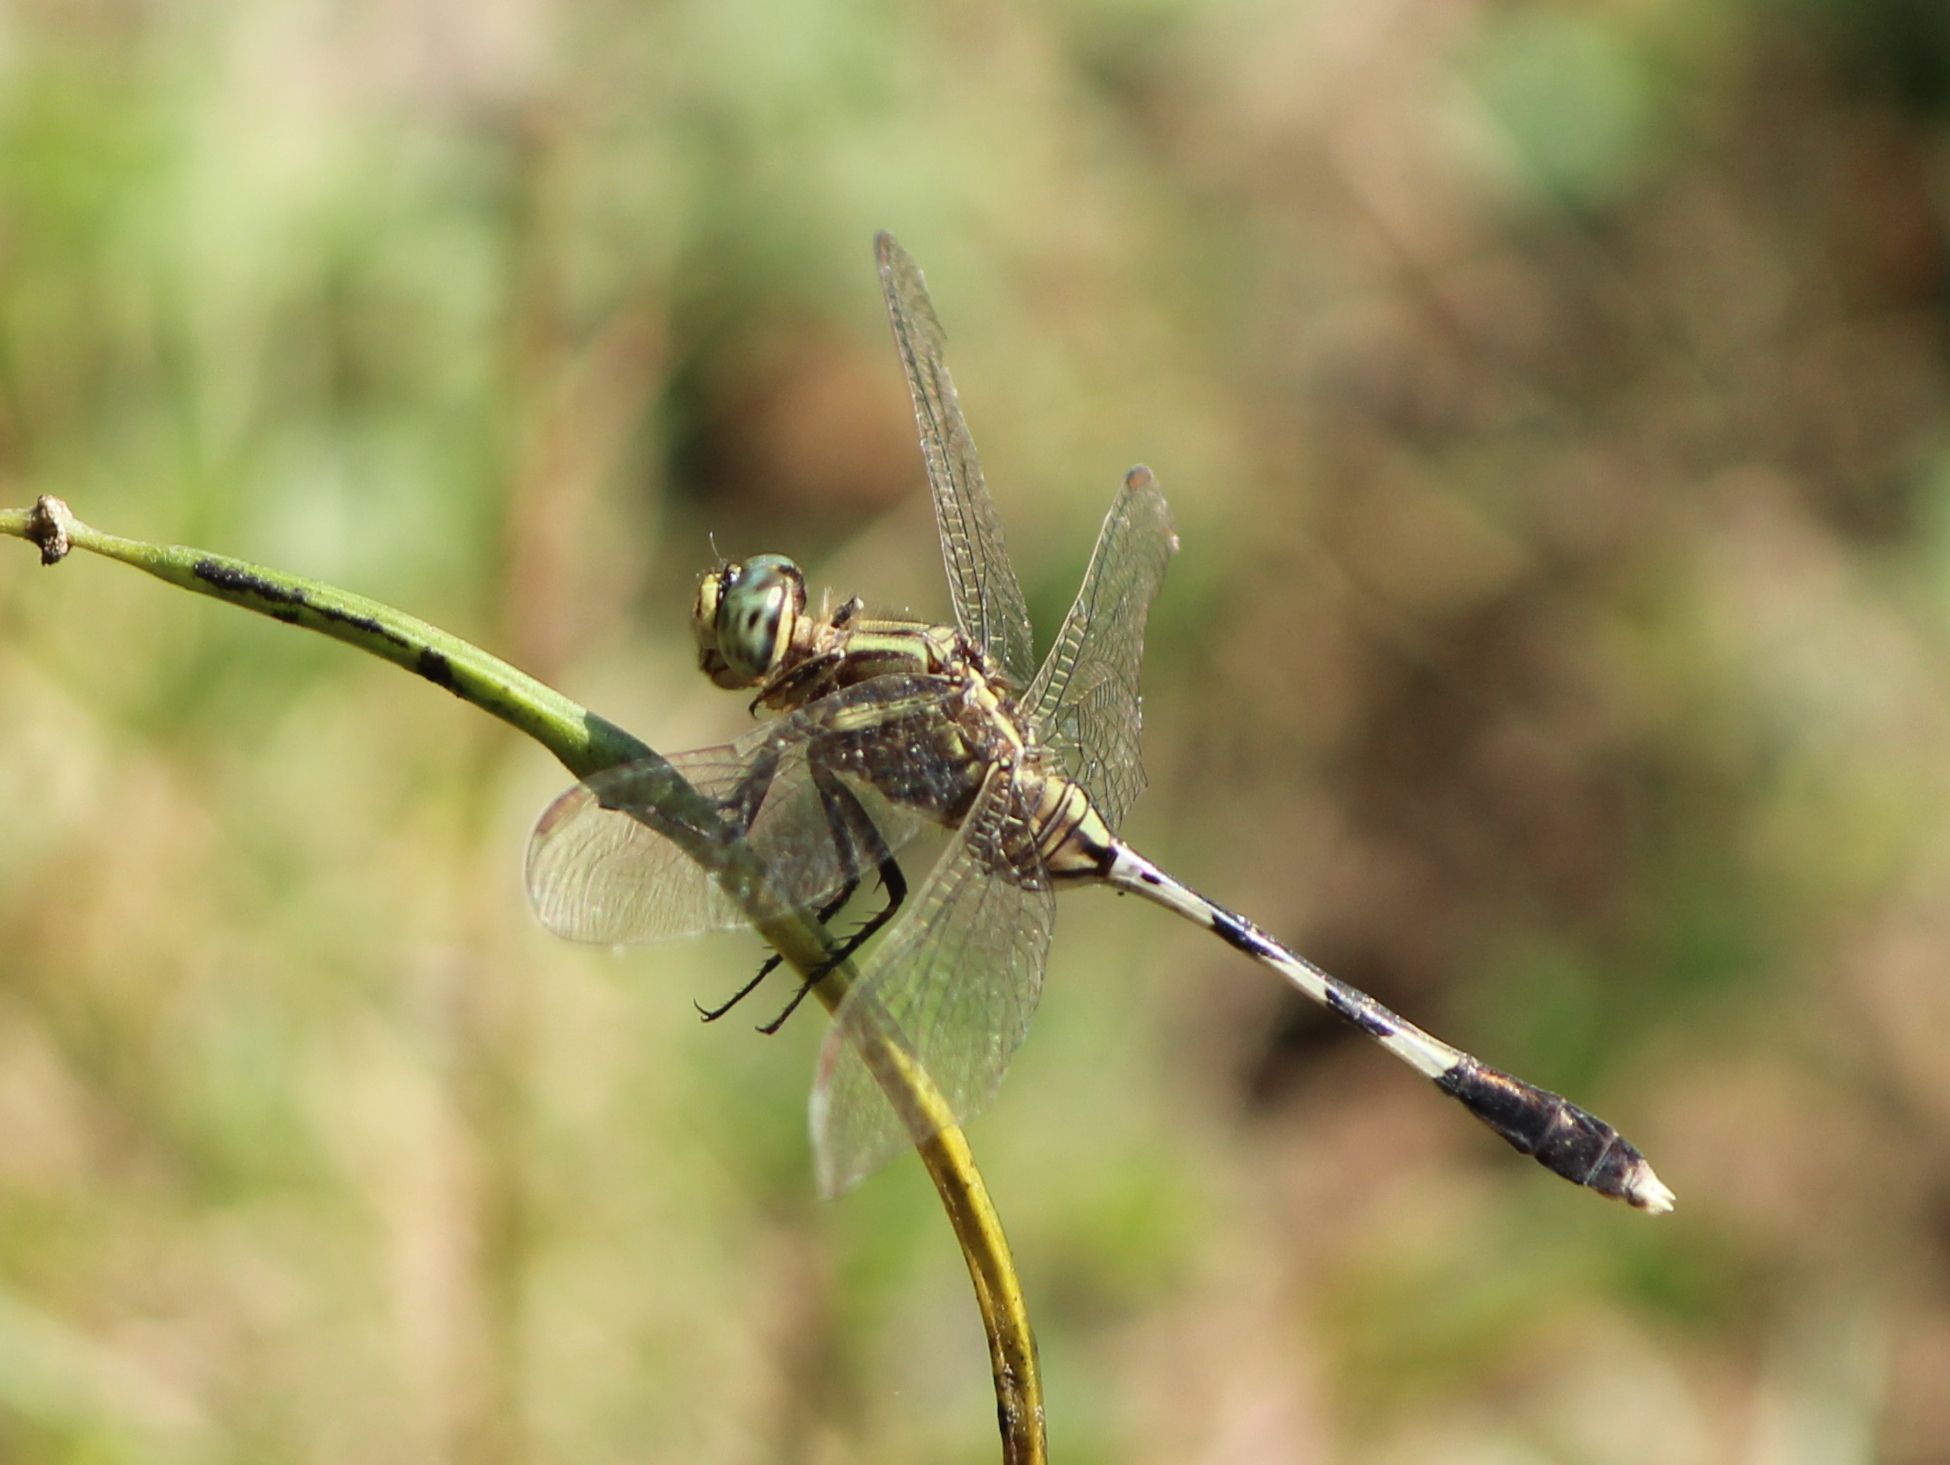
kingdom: Animalia
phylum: Arthropoda
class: Insecta
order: Odonata
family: Libellulidae
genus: Orthetrum
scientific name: Orthetrum sabina
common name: Slender skimmer
